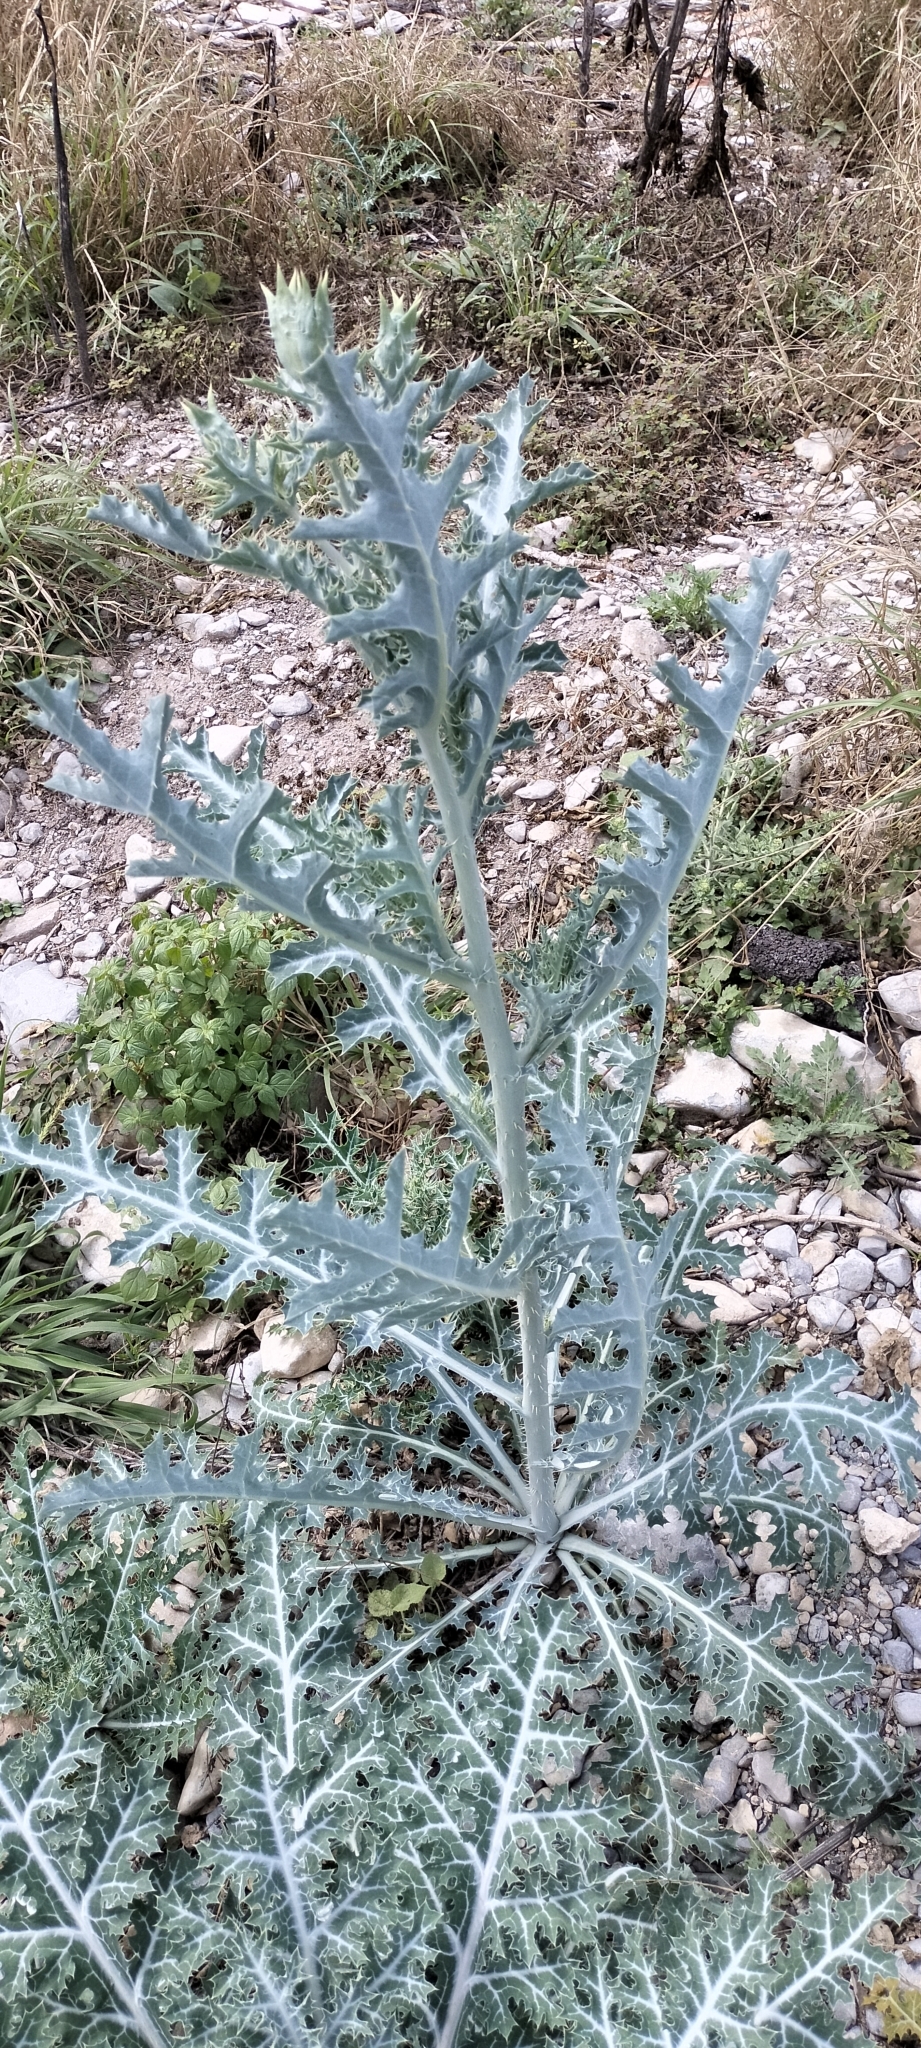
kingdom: Plantae
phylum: Tracheophyta
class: Magnoliopsida
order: Ranunculales
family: Papaveraceae
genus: Argemone
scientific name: Argemone mexicana
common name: Mexican poppy
